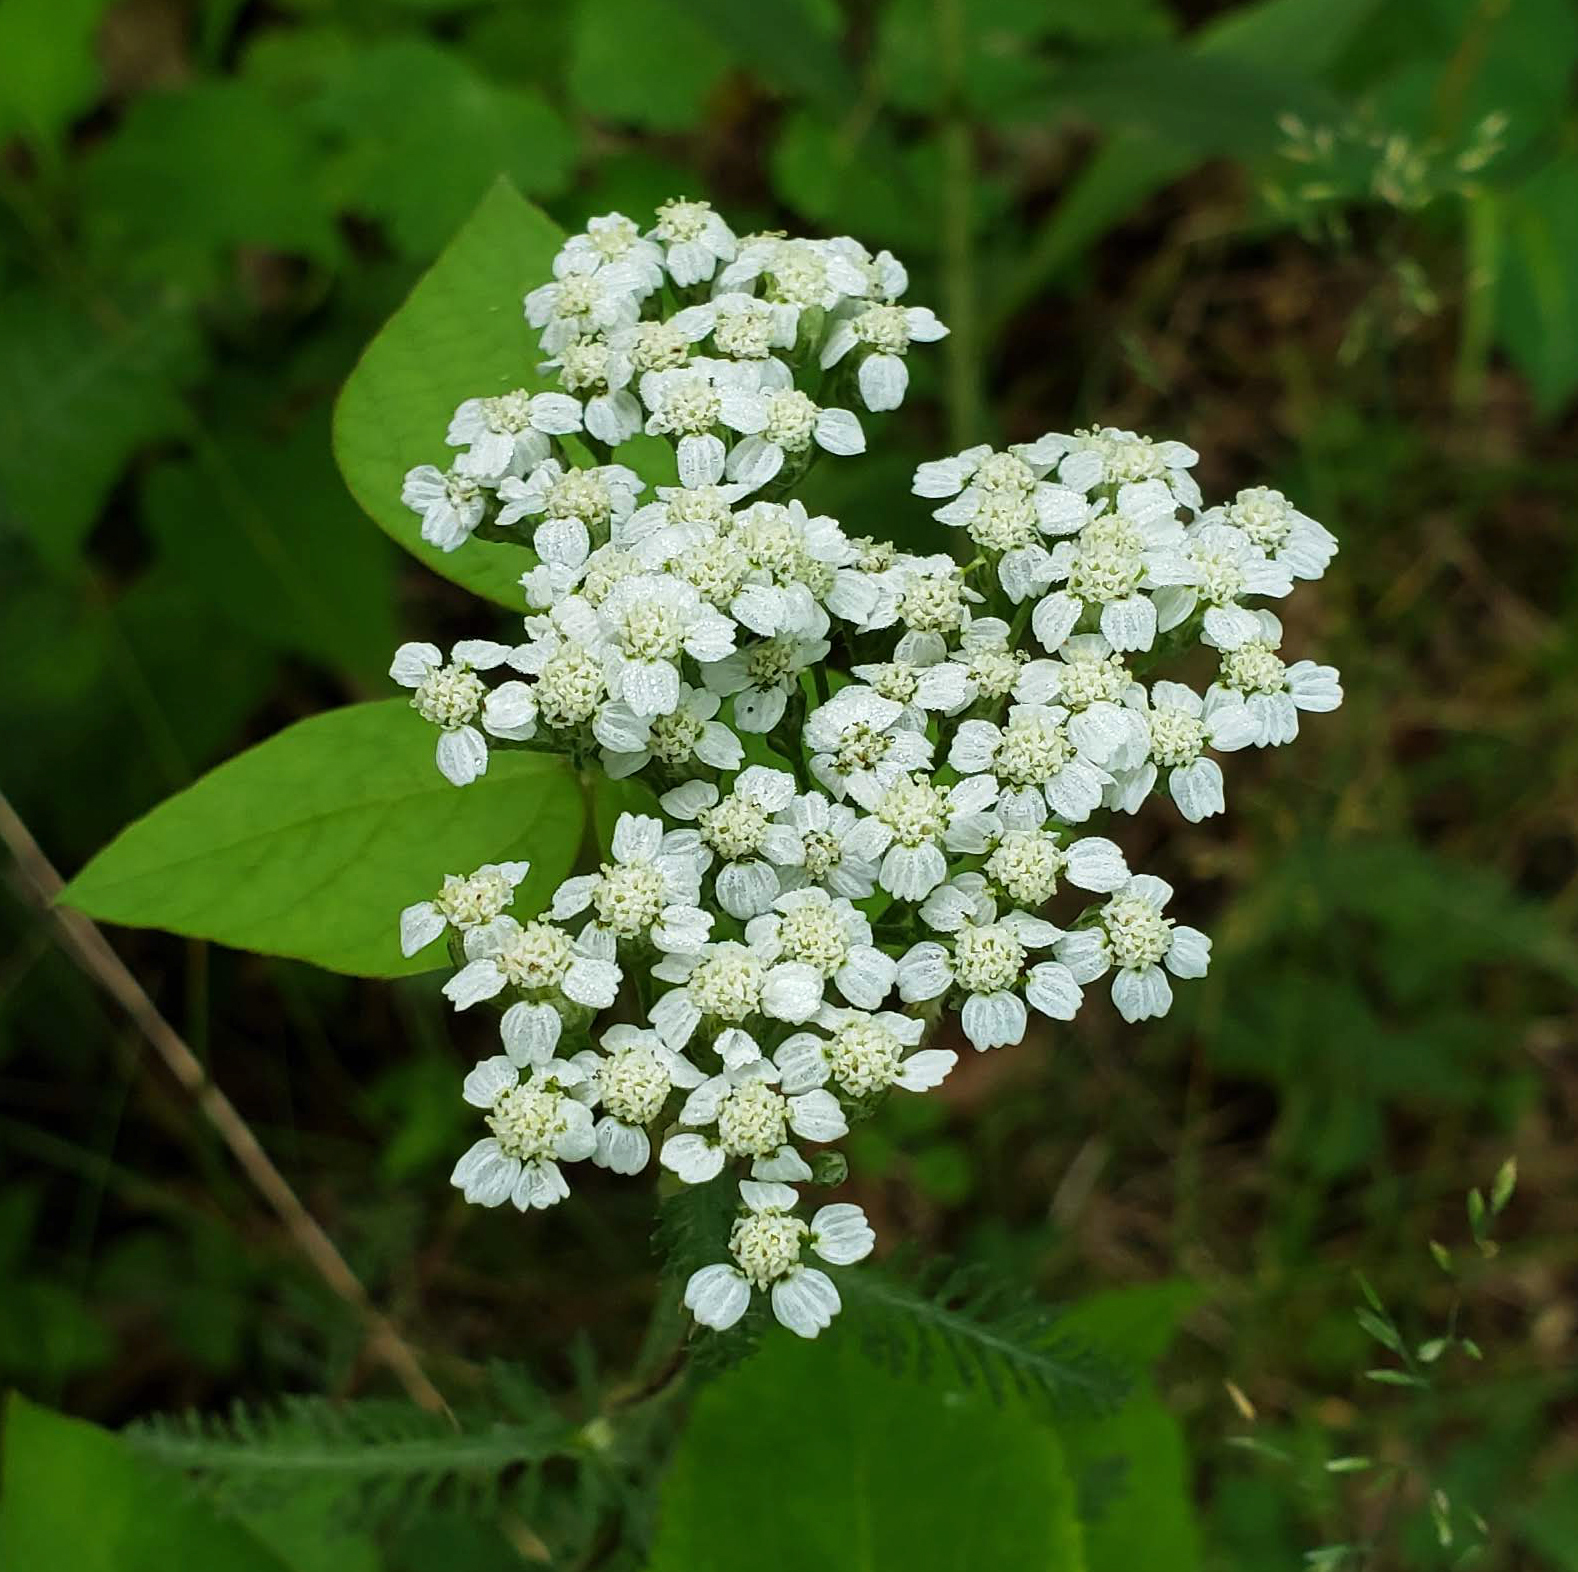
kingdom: Plantae
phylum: Tracheophyta
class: Magnoliopsida
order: Asterales
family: Asteraceae
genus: Achillea
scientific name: Achillea millefolium
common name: Yarrow
